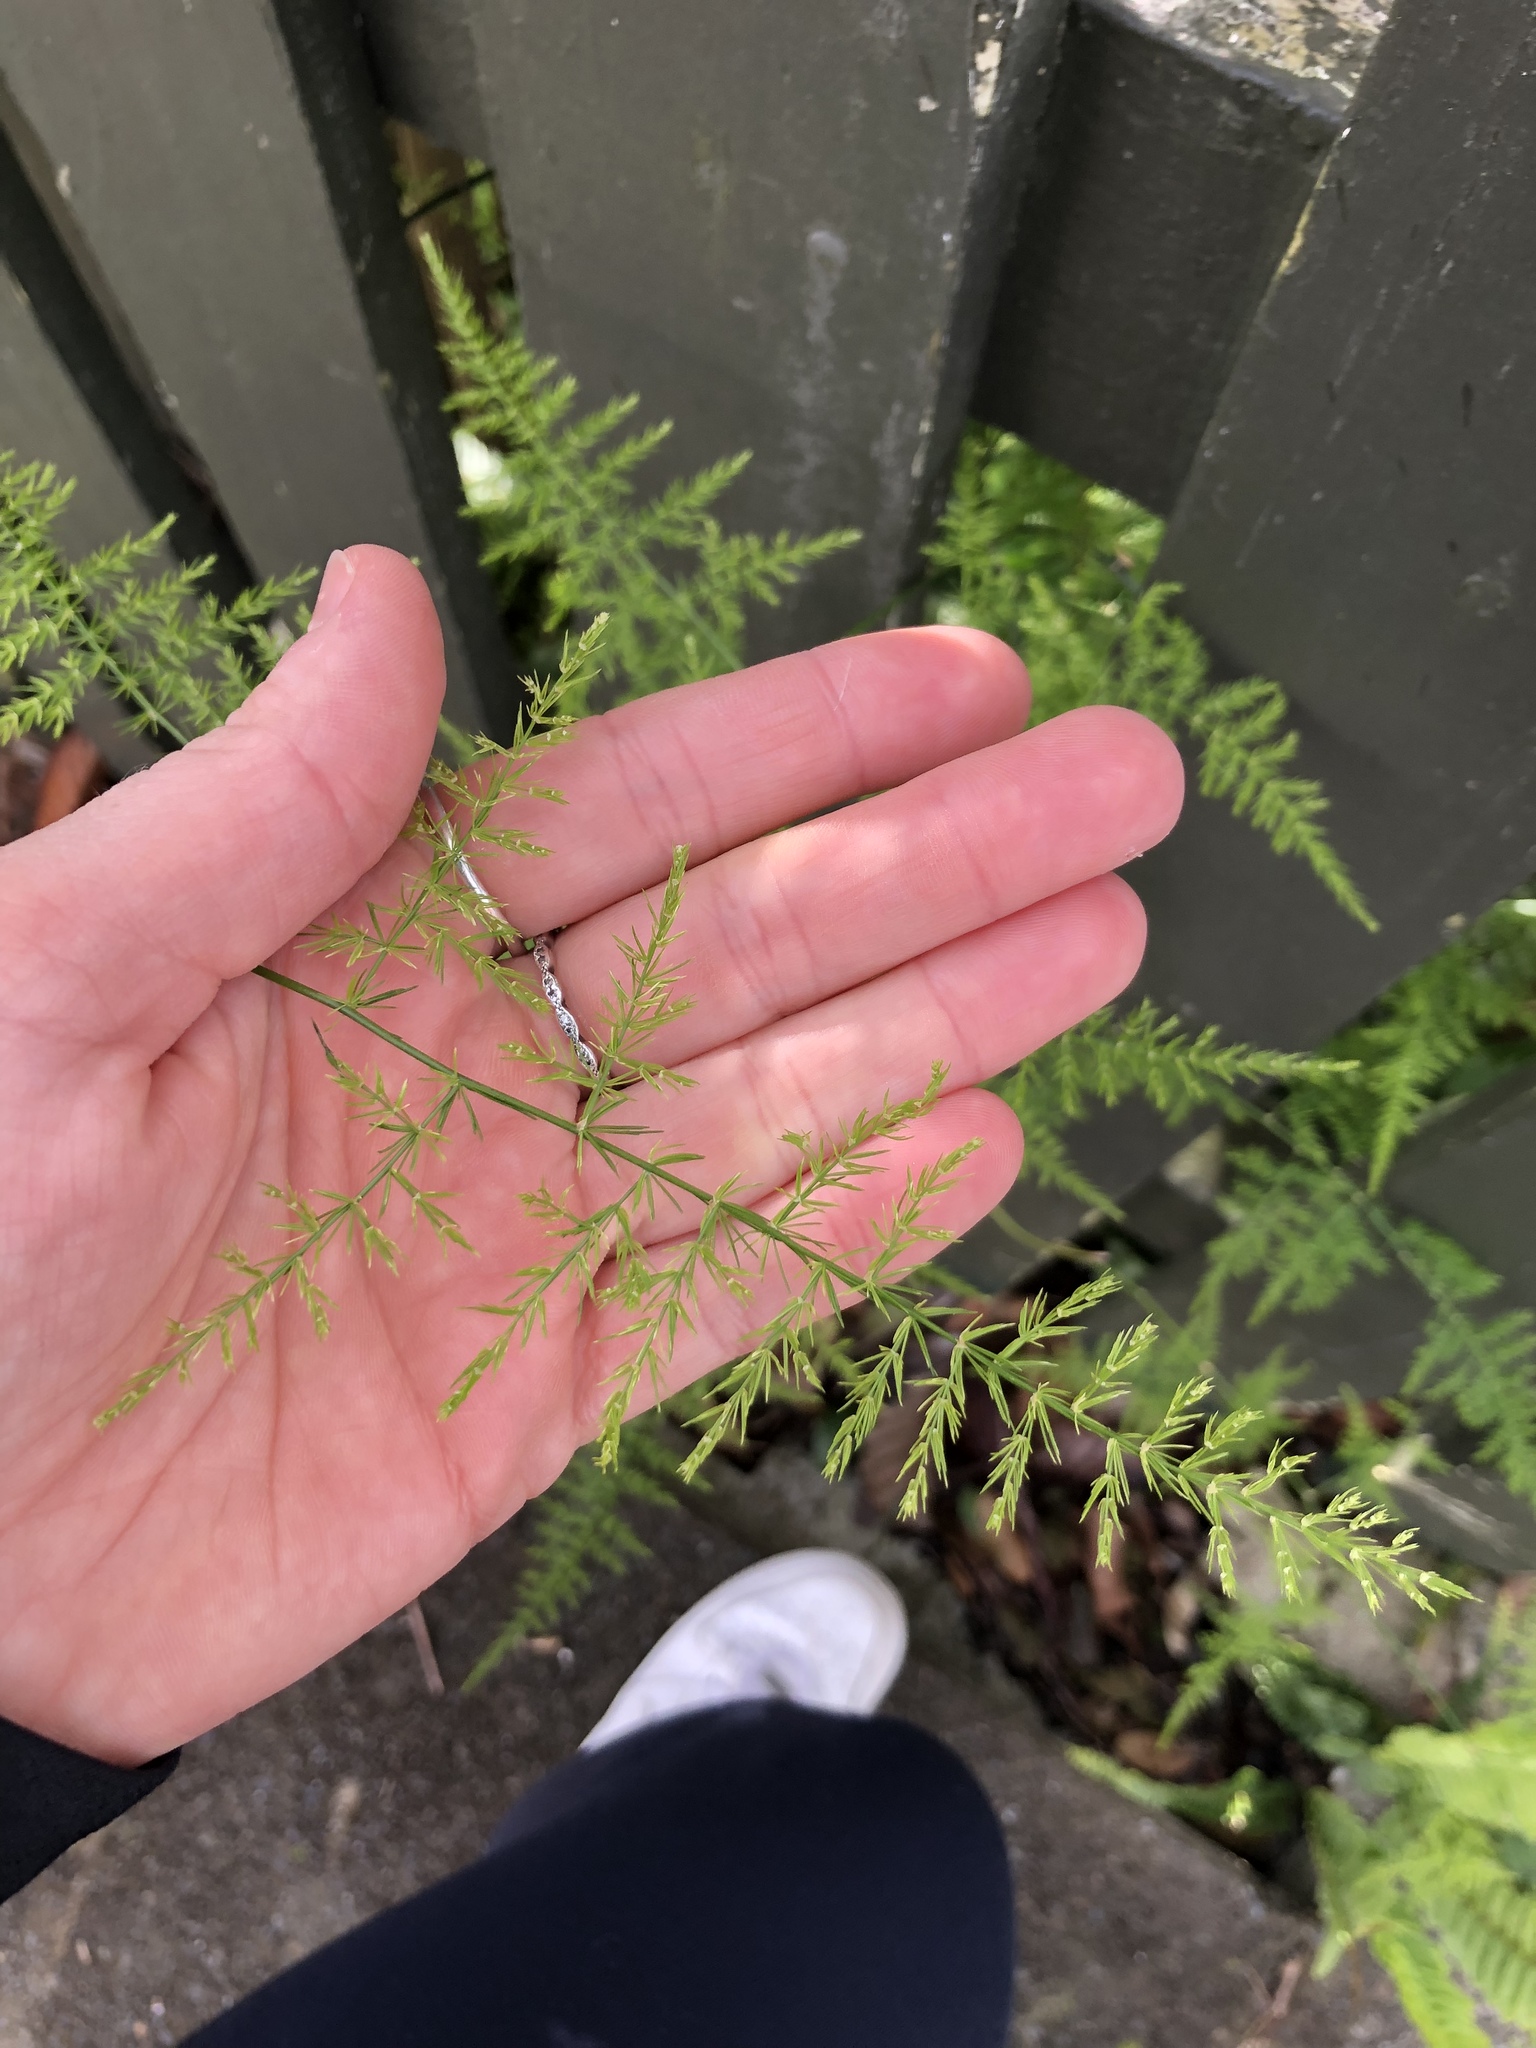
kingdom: Plantae
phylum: Tracheophyta
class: Liliopsida
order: Asparagales
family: Asparagaceae
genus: Asparagus
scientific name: Asparagus setaceus
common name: Common asparagus fern
